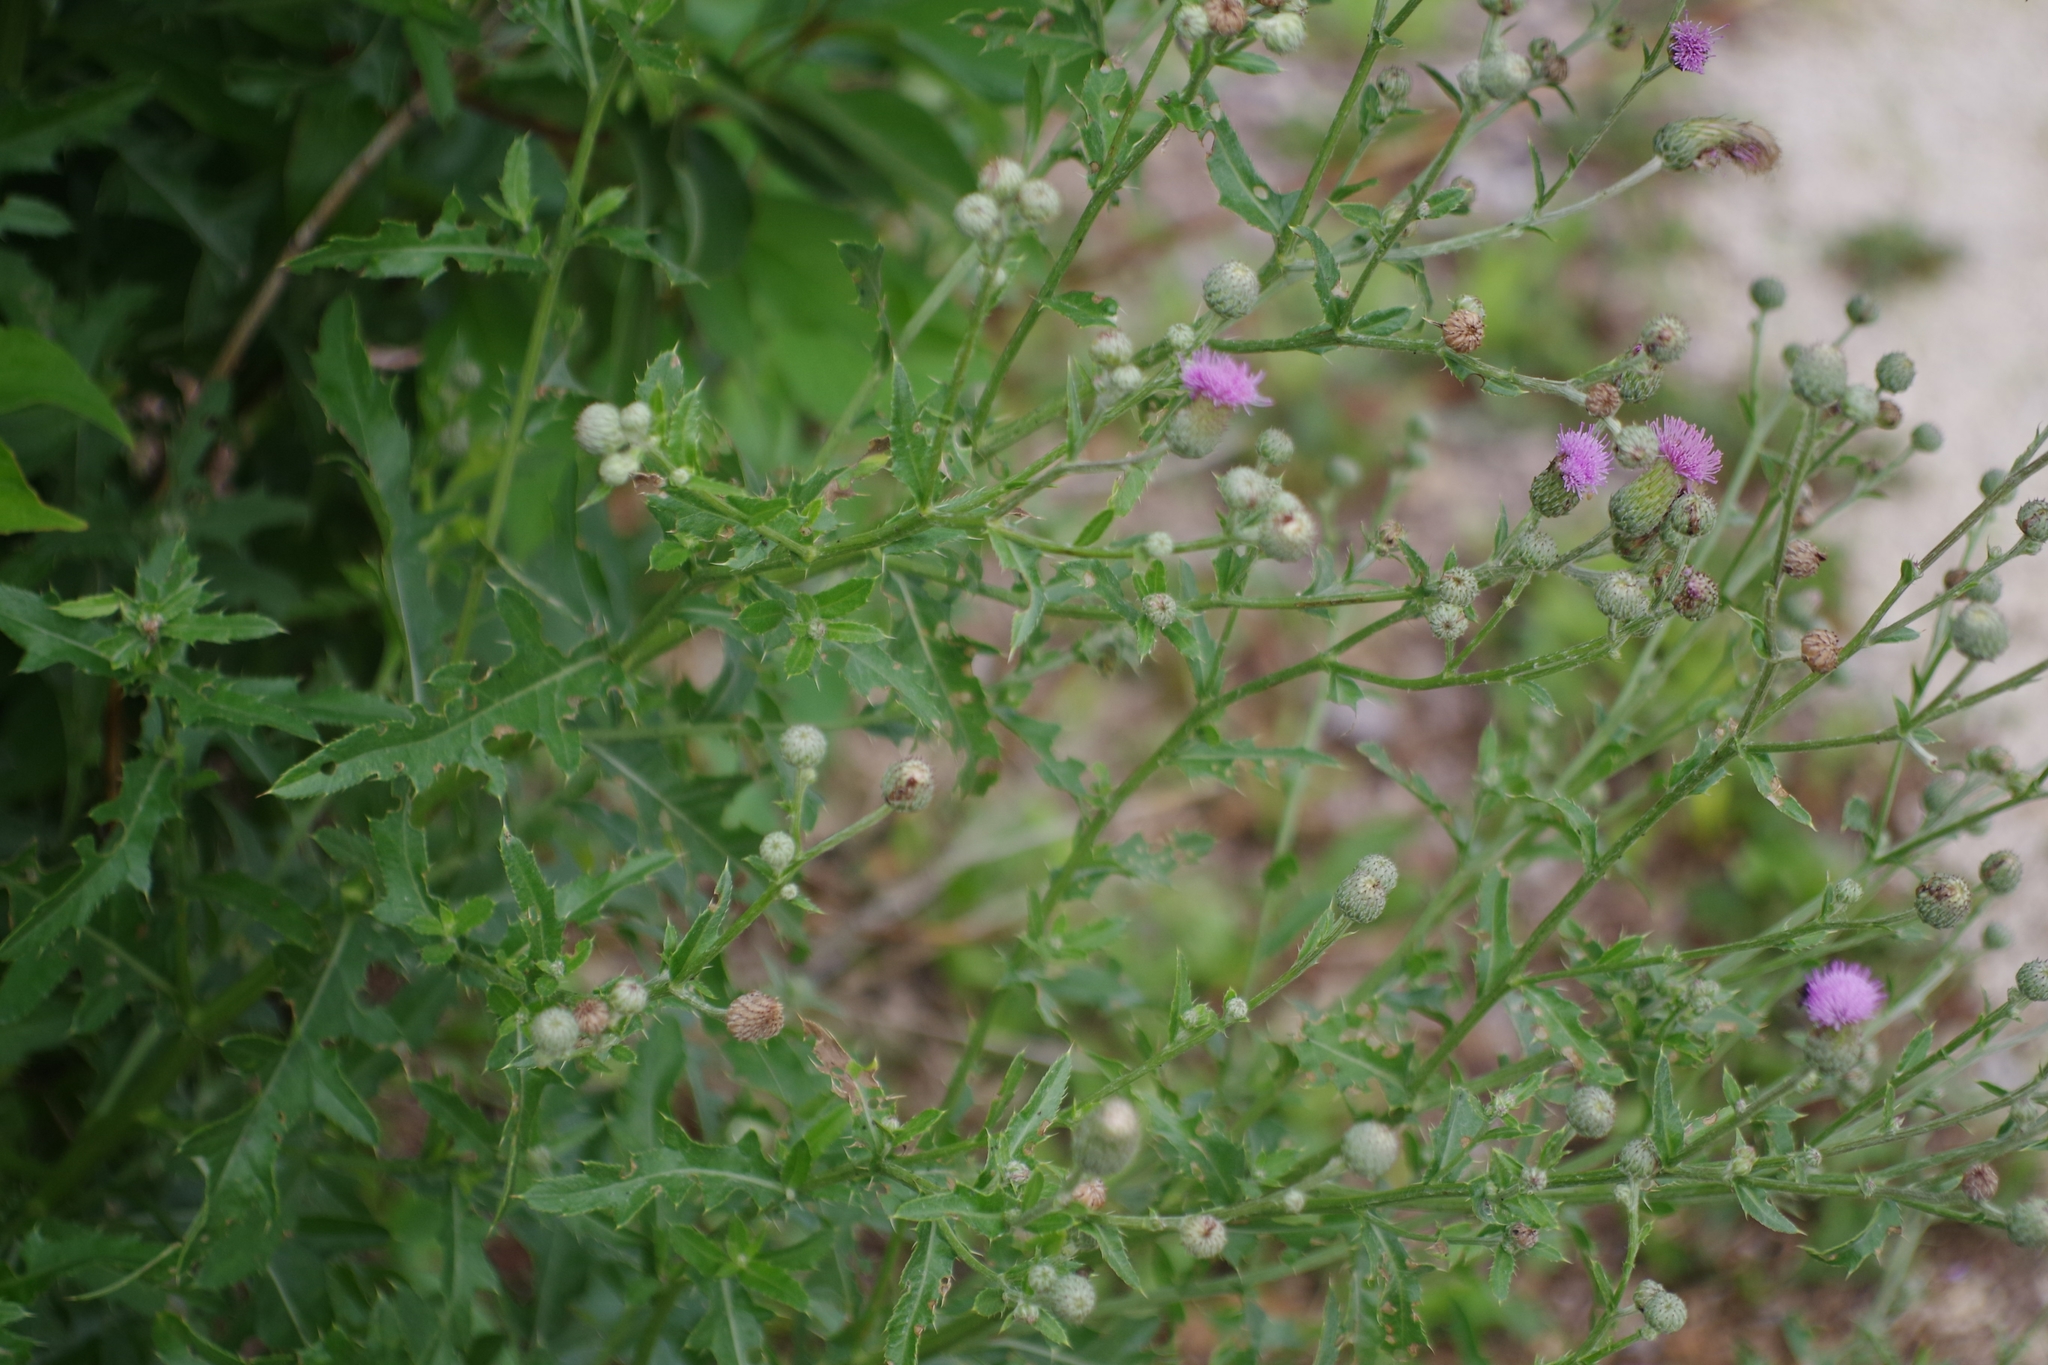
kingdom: Plantae
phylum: Tracheophyta
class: Magnoliopsida
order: Asterales
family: Asteraceae
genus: Cirsium
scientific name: Cirsium arvense
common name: Creeping thistle
